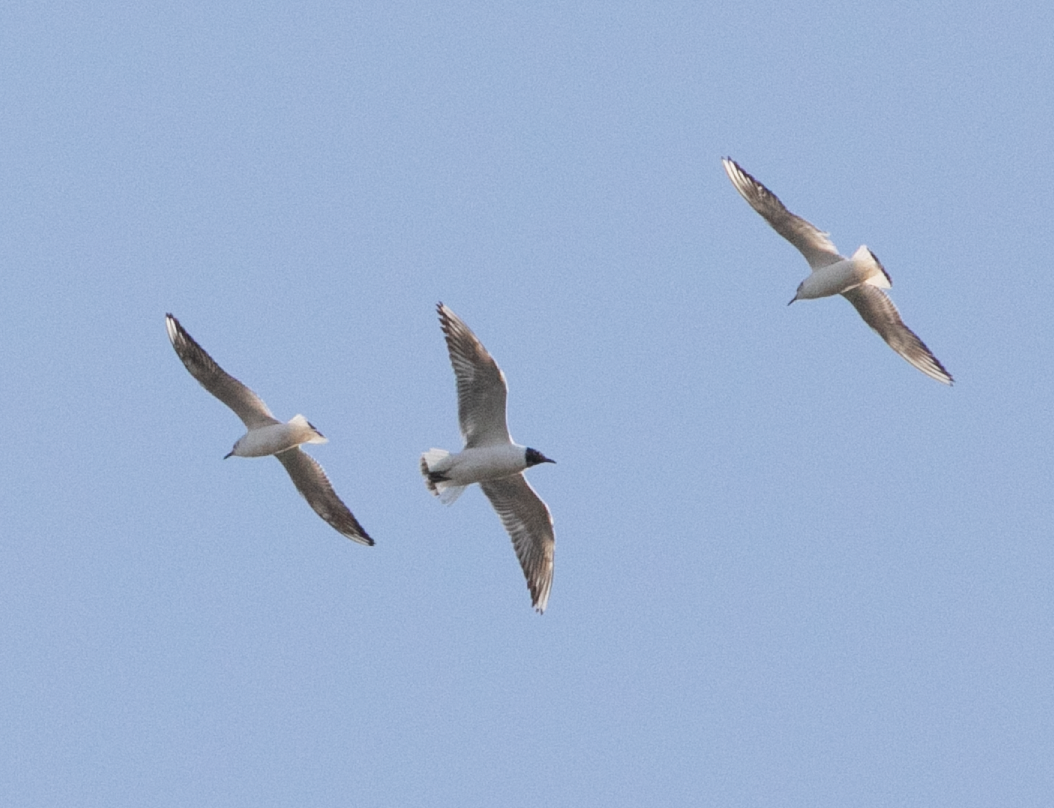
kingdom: Animalia
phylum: Chordata
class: Aves
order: Charadriiformes
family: Laridae
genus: Chroicocephalus
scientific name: Chroicocephalus ridibundus
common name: Black-headed gull
